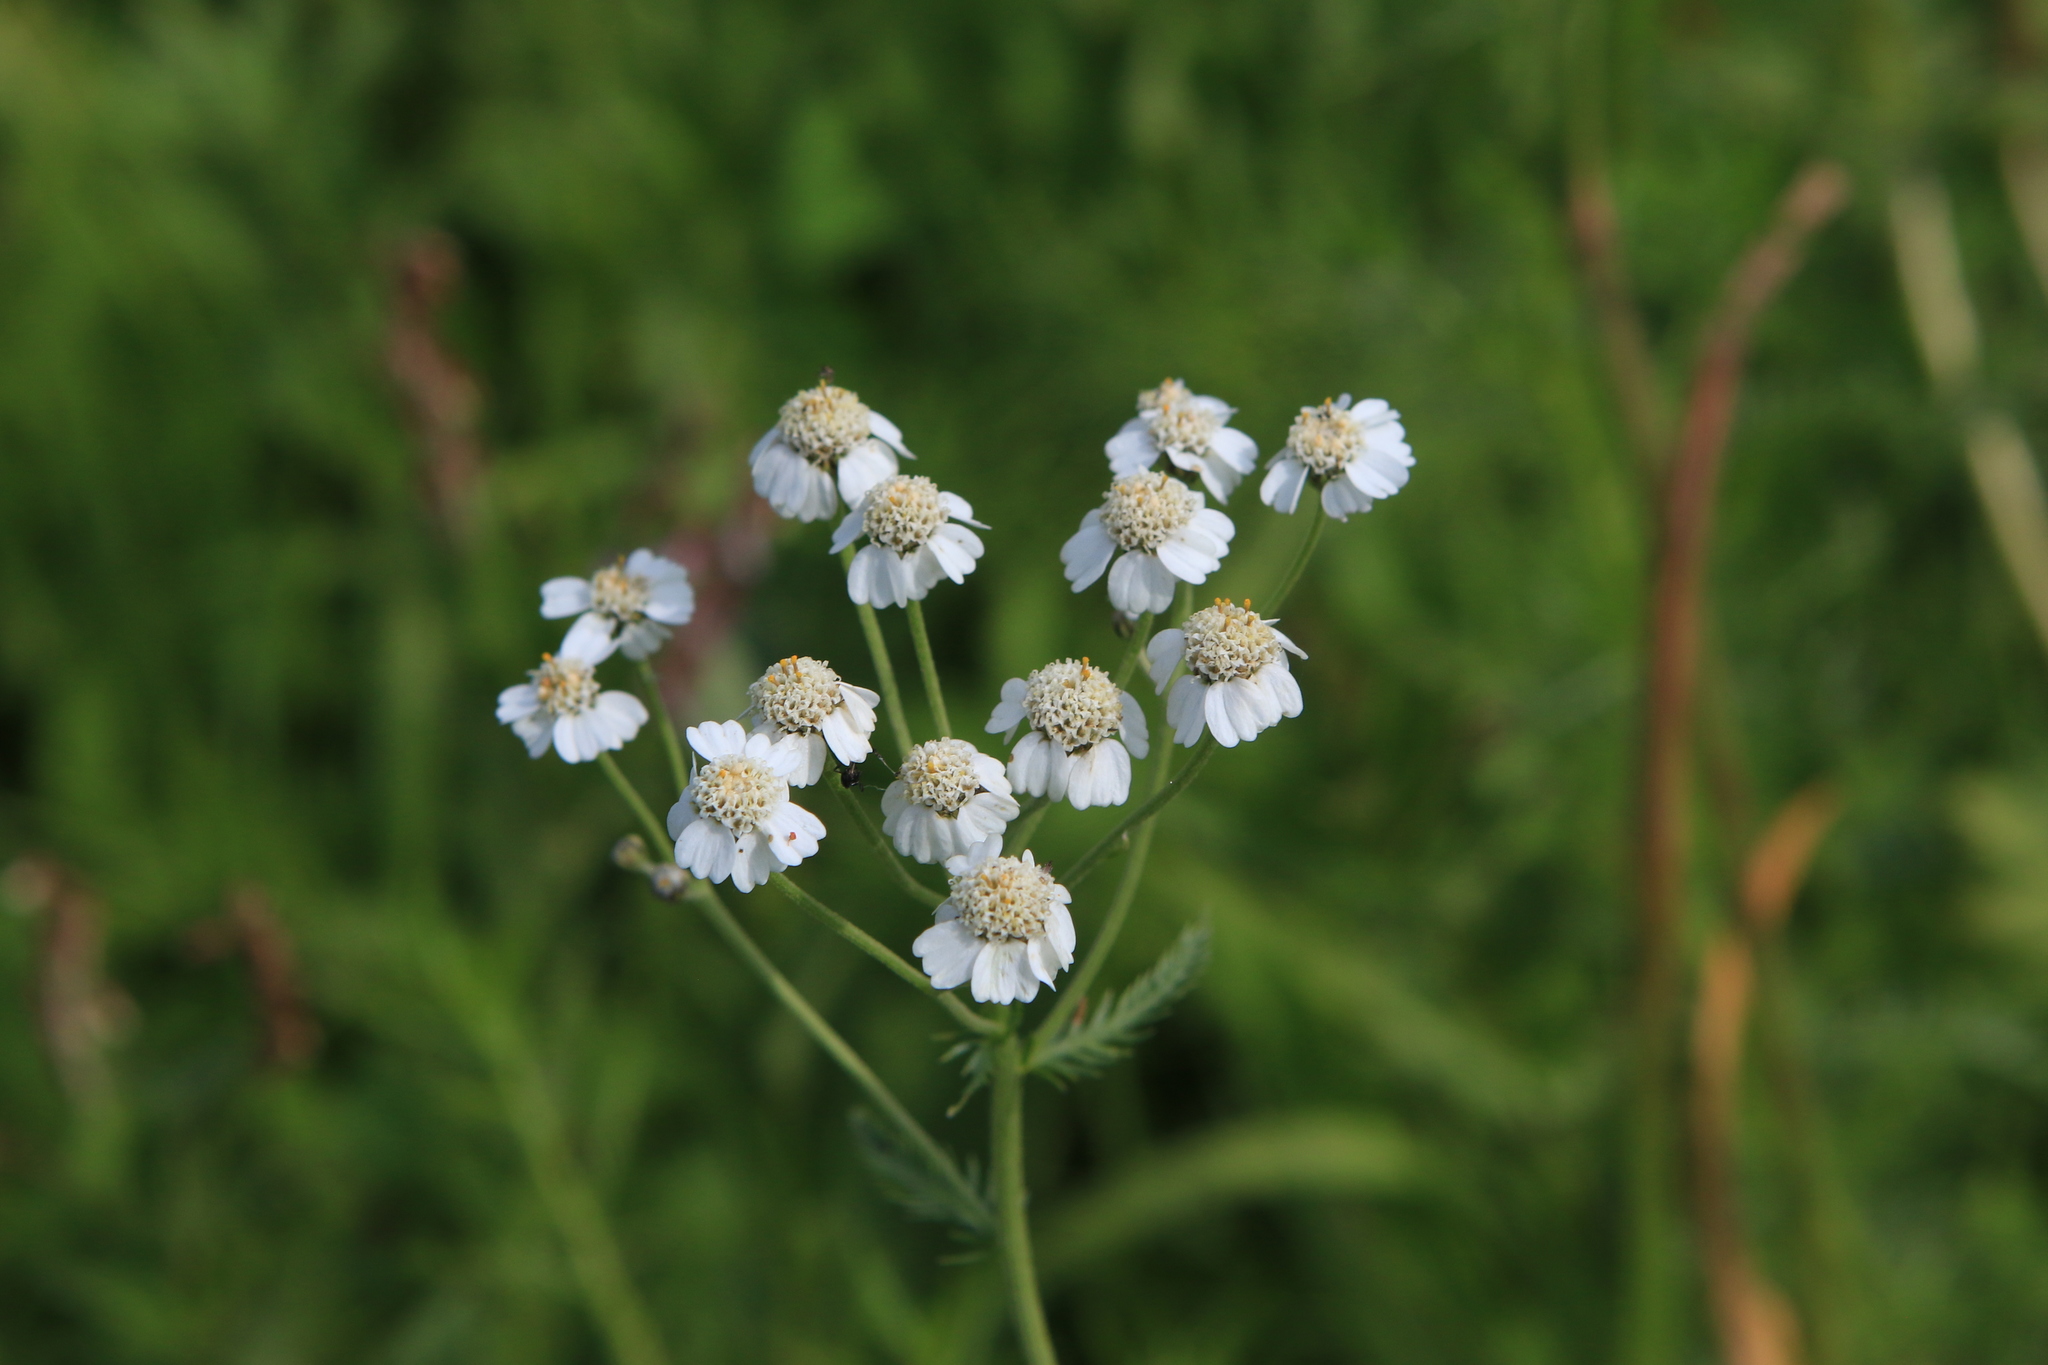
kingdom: Plantae
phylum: Tracheophyta
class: Magnoliopsida
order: Asterales
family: Asteraceae
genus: Achillea
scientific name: Achillea impatiens
